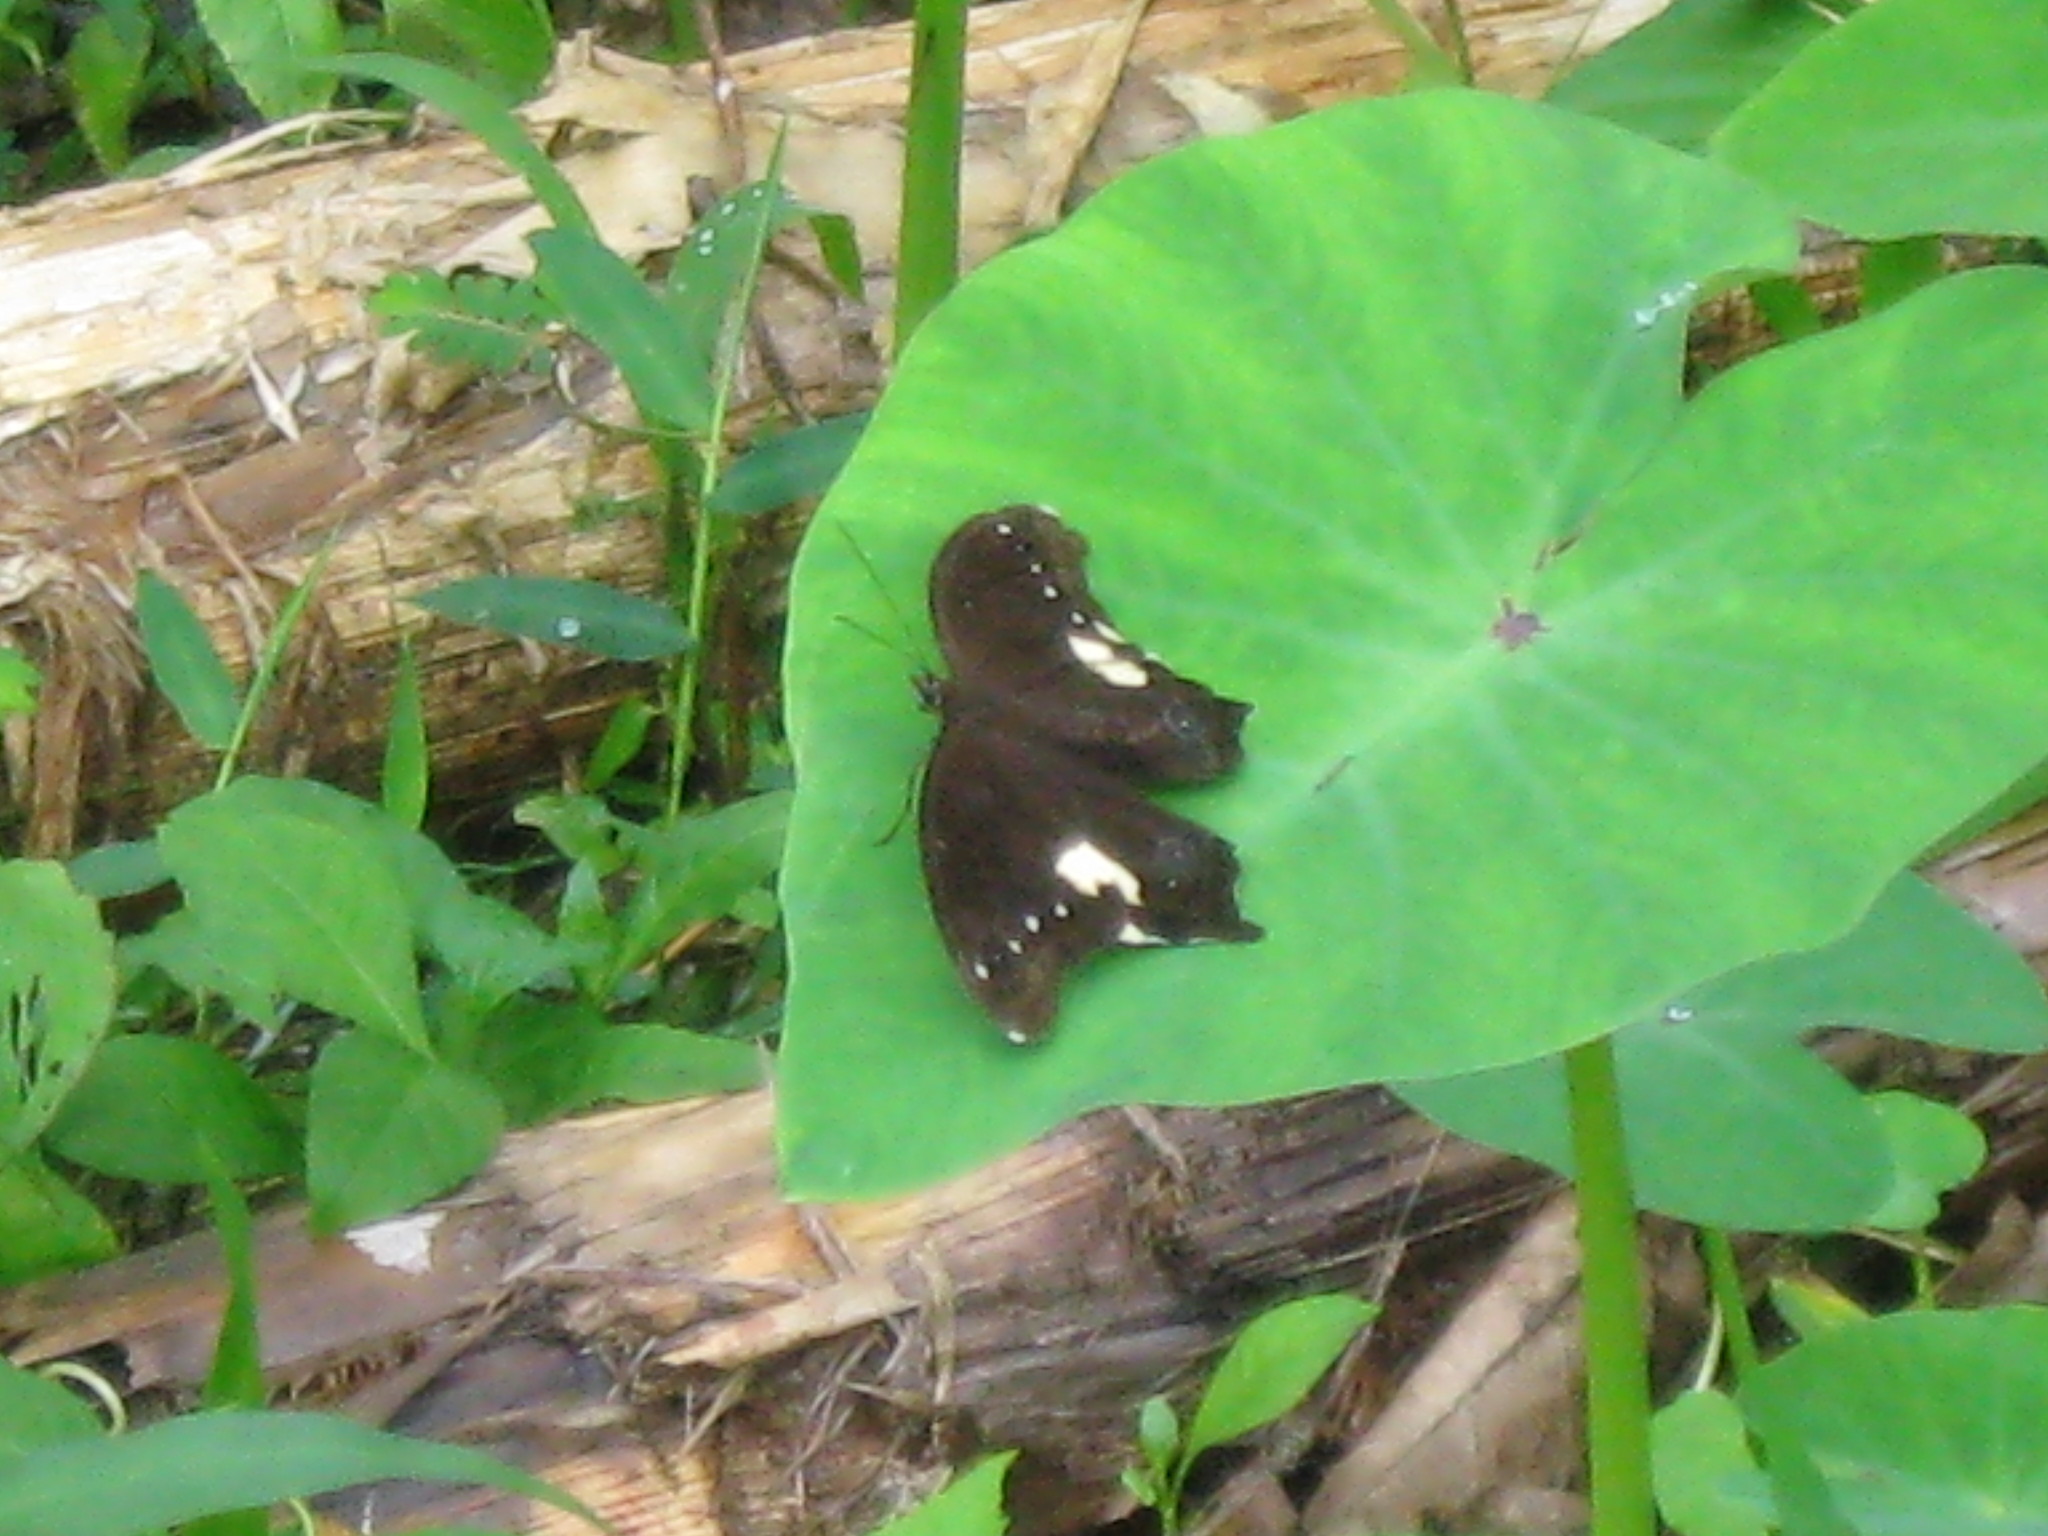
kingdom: Animalia
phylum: Arthropoda
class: Insecta
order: Lepidoptera
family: Nymphalidae
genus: Neorina
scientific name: Neorina lowii
